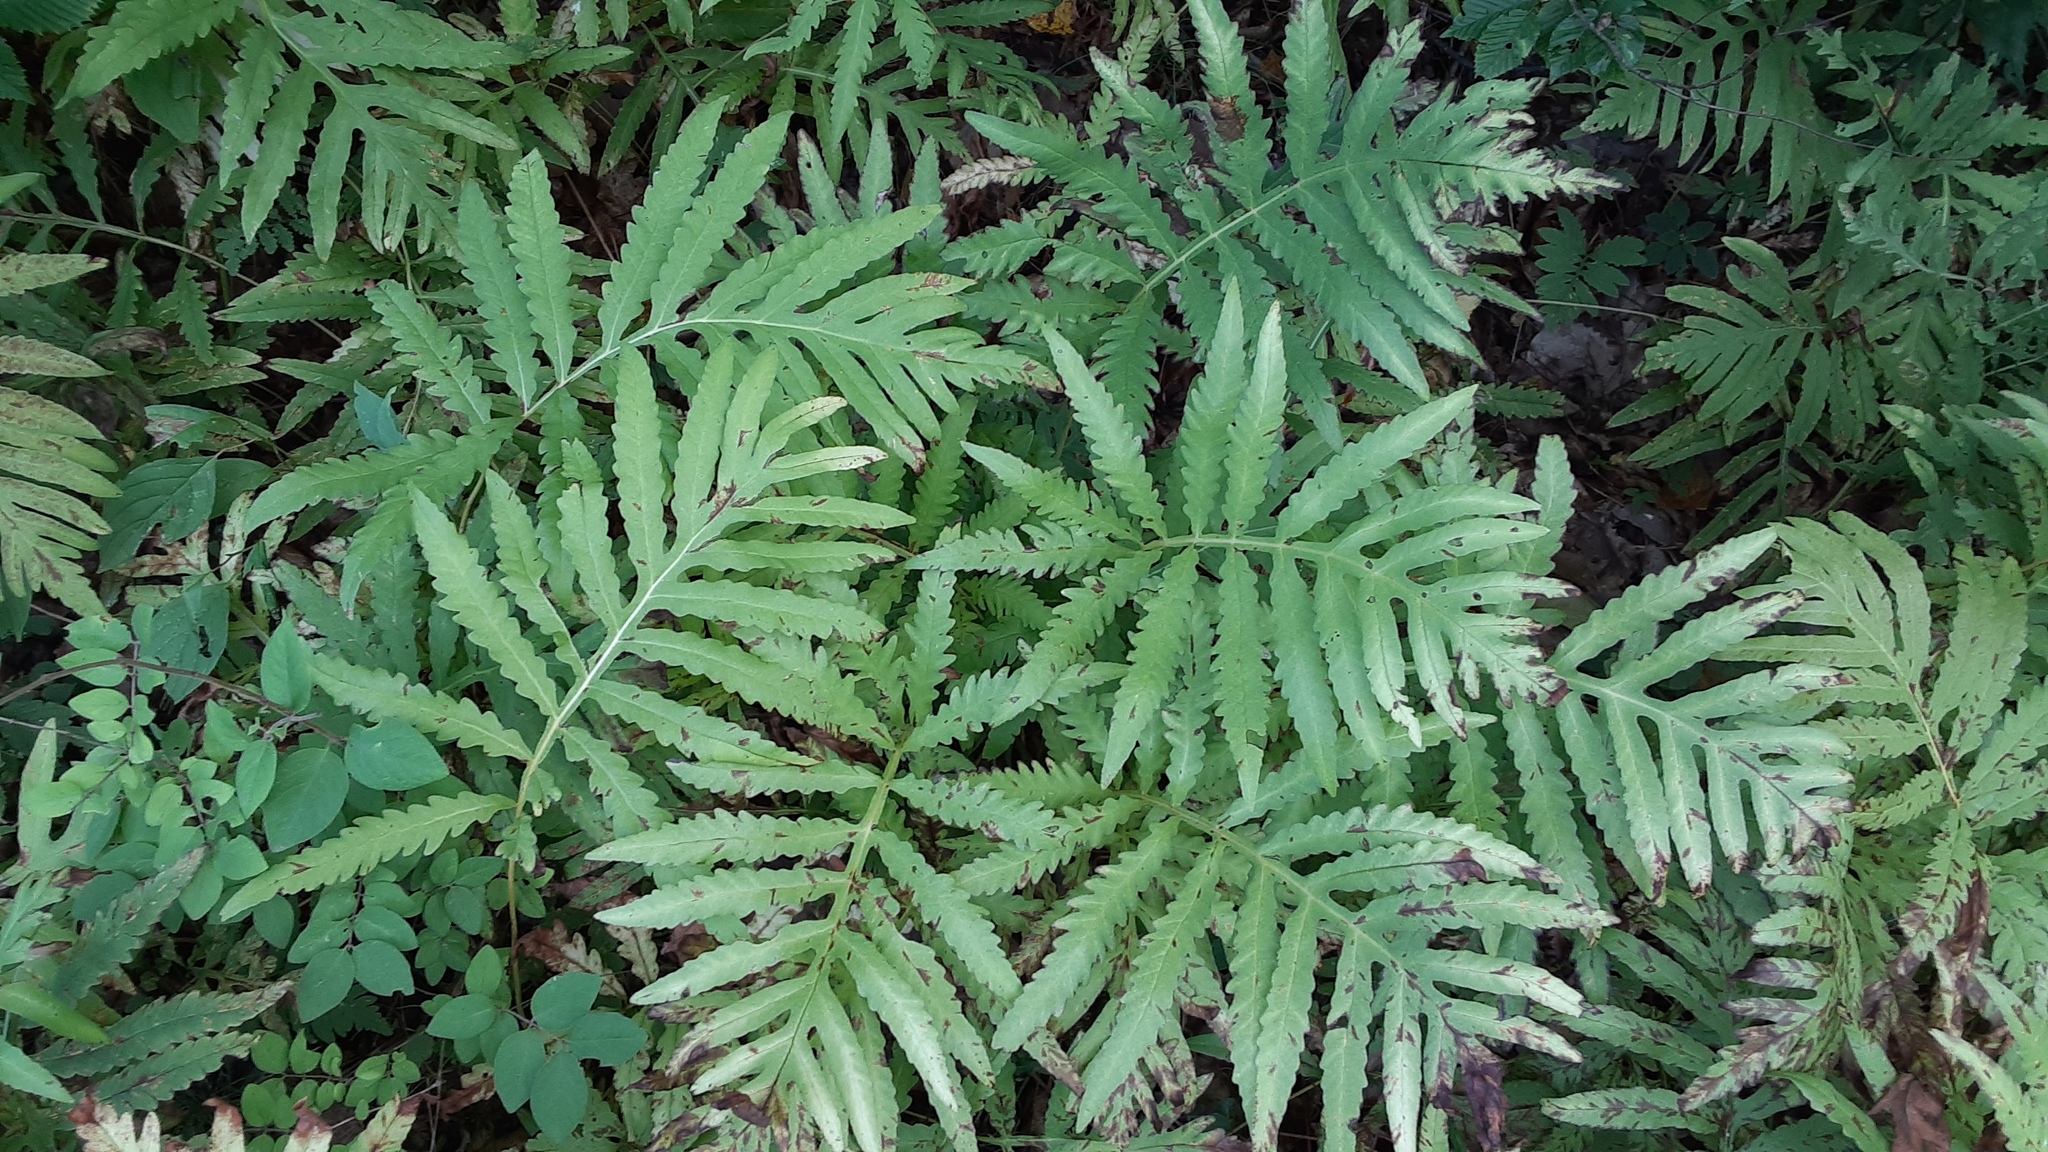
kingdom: Plantae
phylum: Tracheophyta
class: Polypodiopsida
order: Polypodiales
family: Onocleaceae
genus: Onoclea
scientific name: Onoclea sensibilis
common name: Sensitive fern
